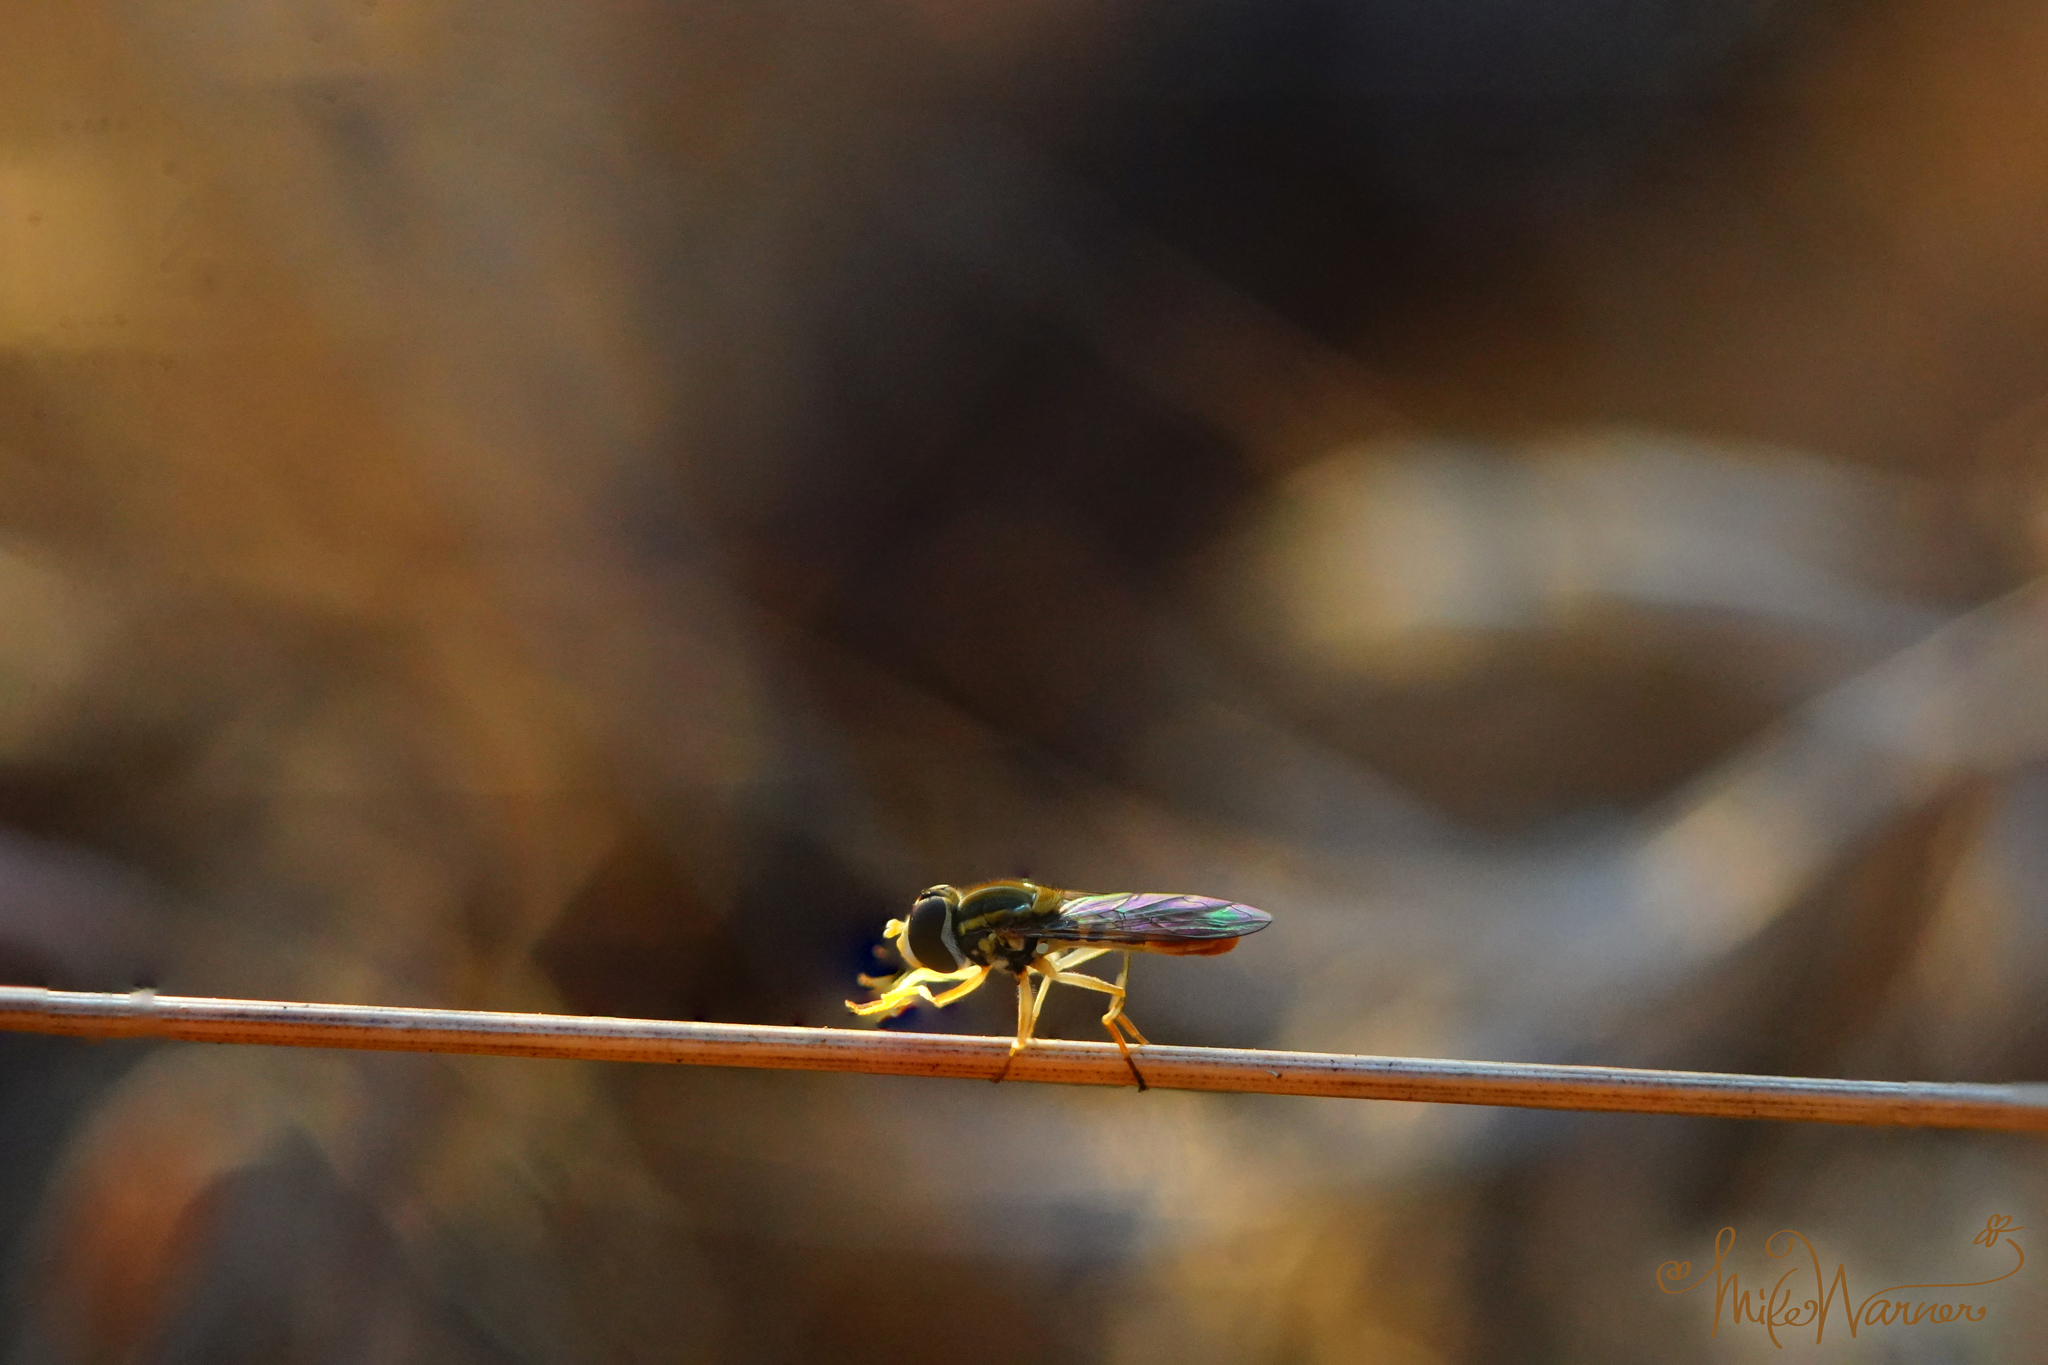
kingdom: Animalia
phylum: Arthropoda
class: Insecta
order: Diptera
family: Syrphidae
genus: Toxomerus
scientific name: Toxomerus marginatus
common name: Syrphid fly
